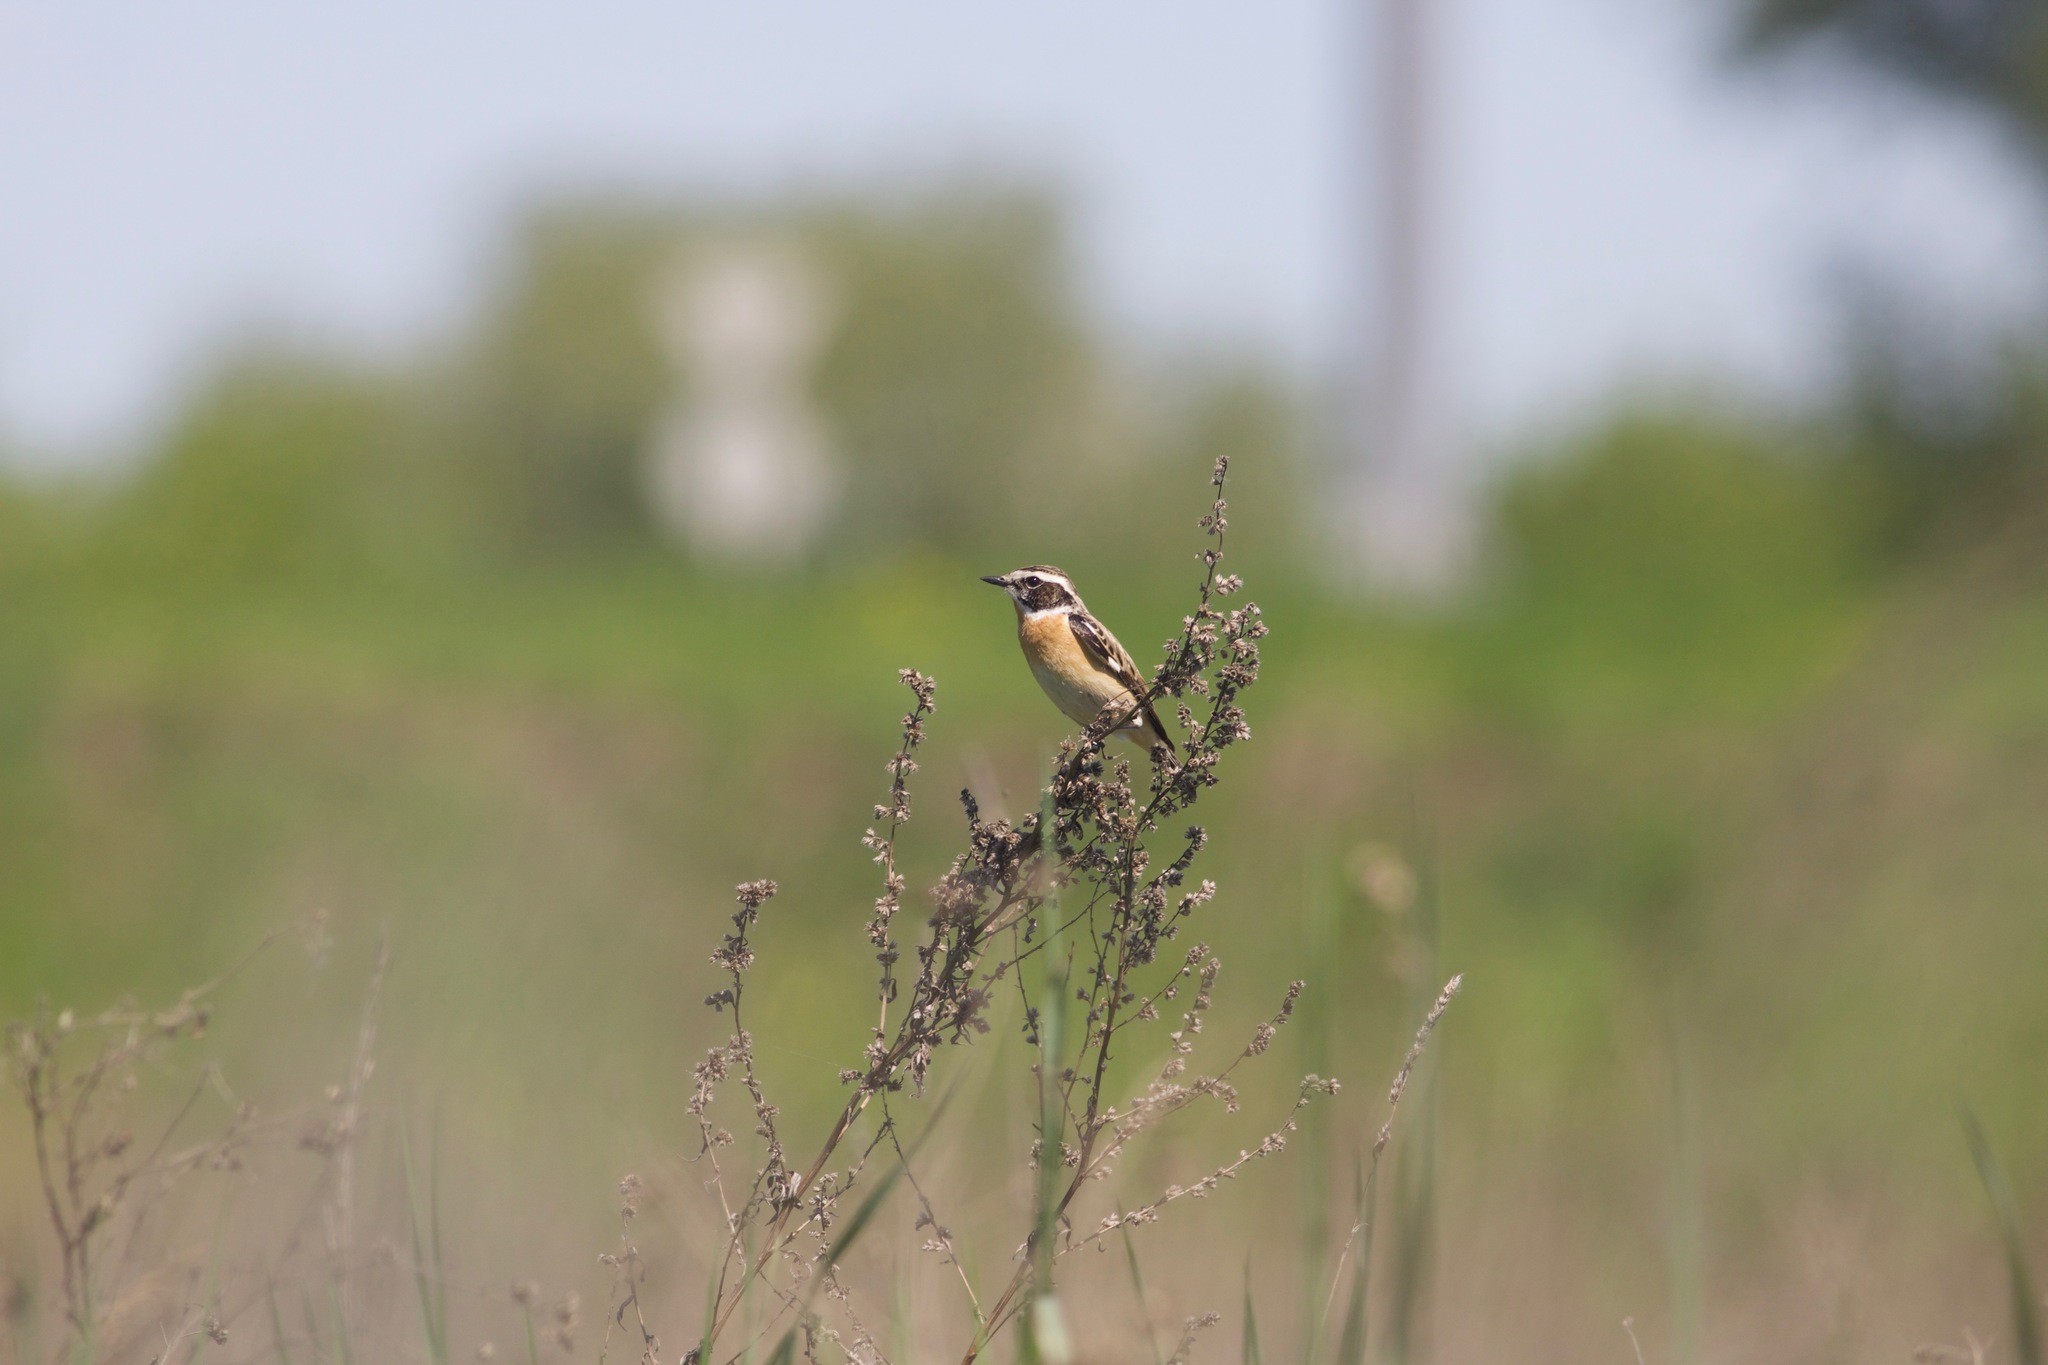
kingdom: Animalia
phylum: Chordata
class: Aves
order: Passeriformes
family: Muscicapidae
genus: Saxicola
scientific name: Saxicola rubetra
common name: Whinchat
